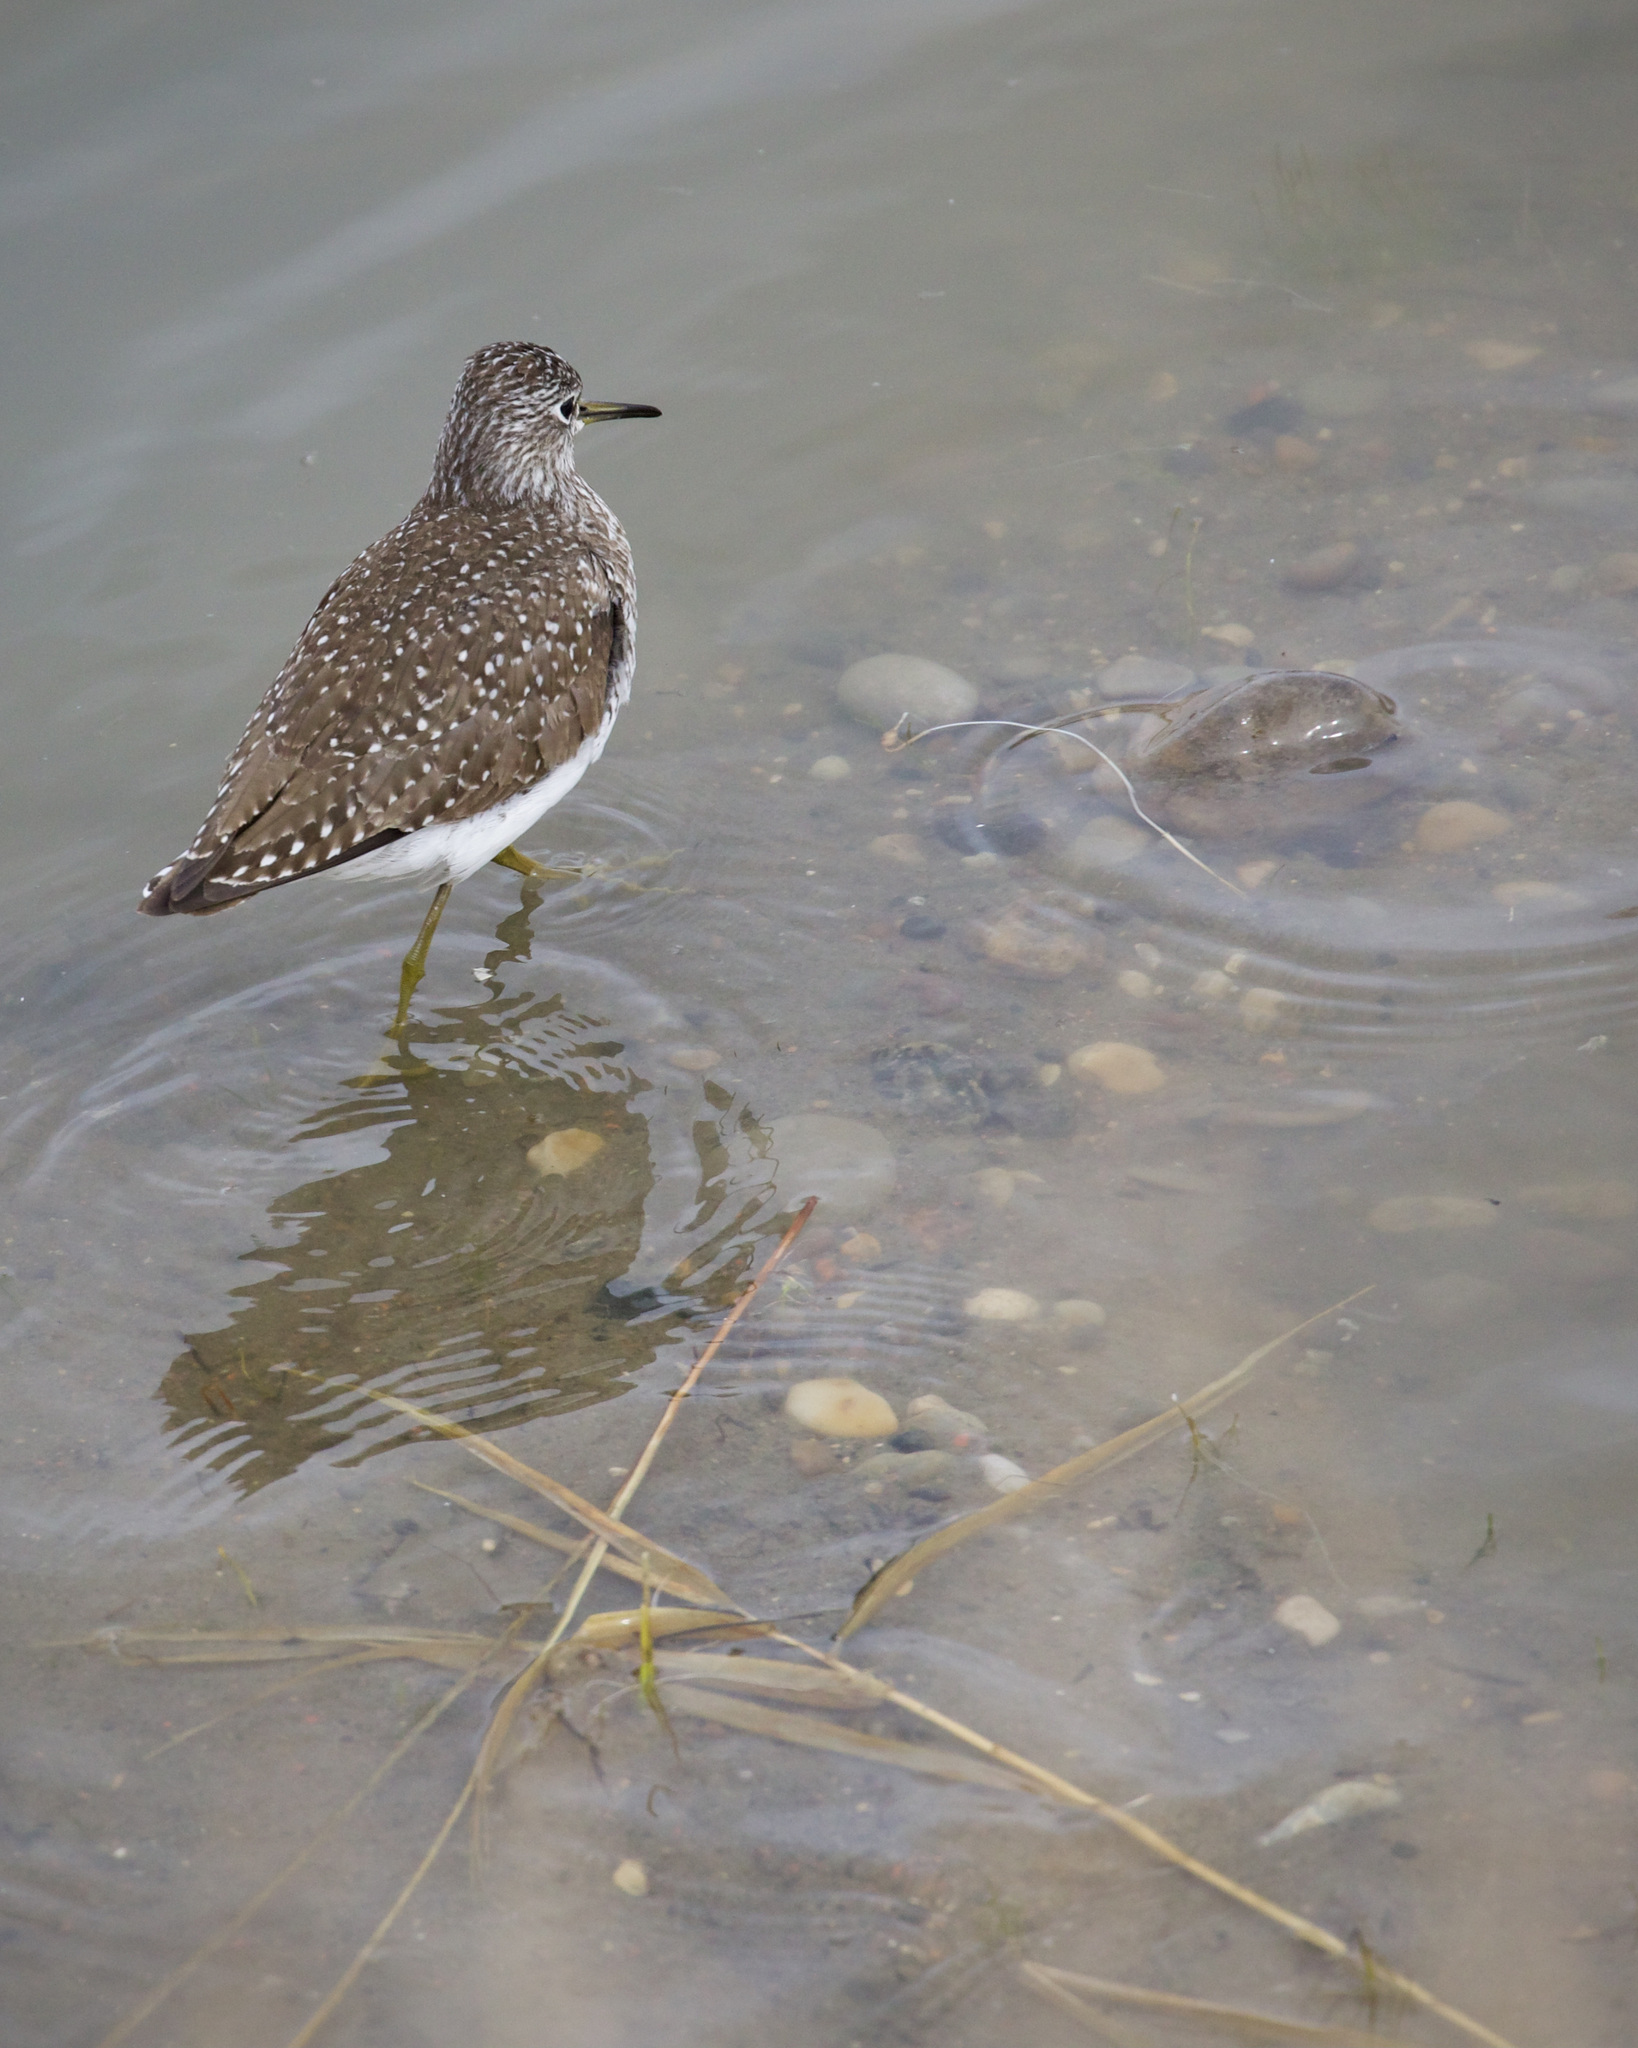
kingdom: Animalia
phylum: Chordata
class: Aves
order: Charadriiformes
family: Scolopacidae
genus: Tringa
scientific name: Tringa solitaria
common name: Solitary sandpiper
